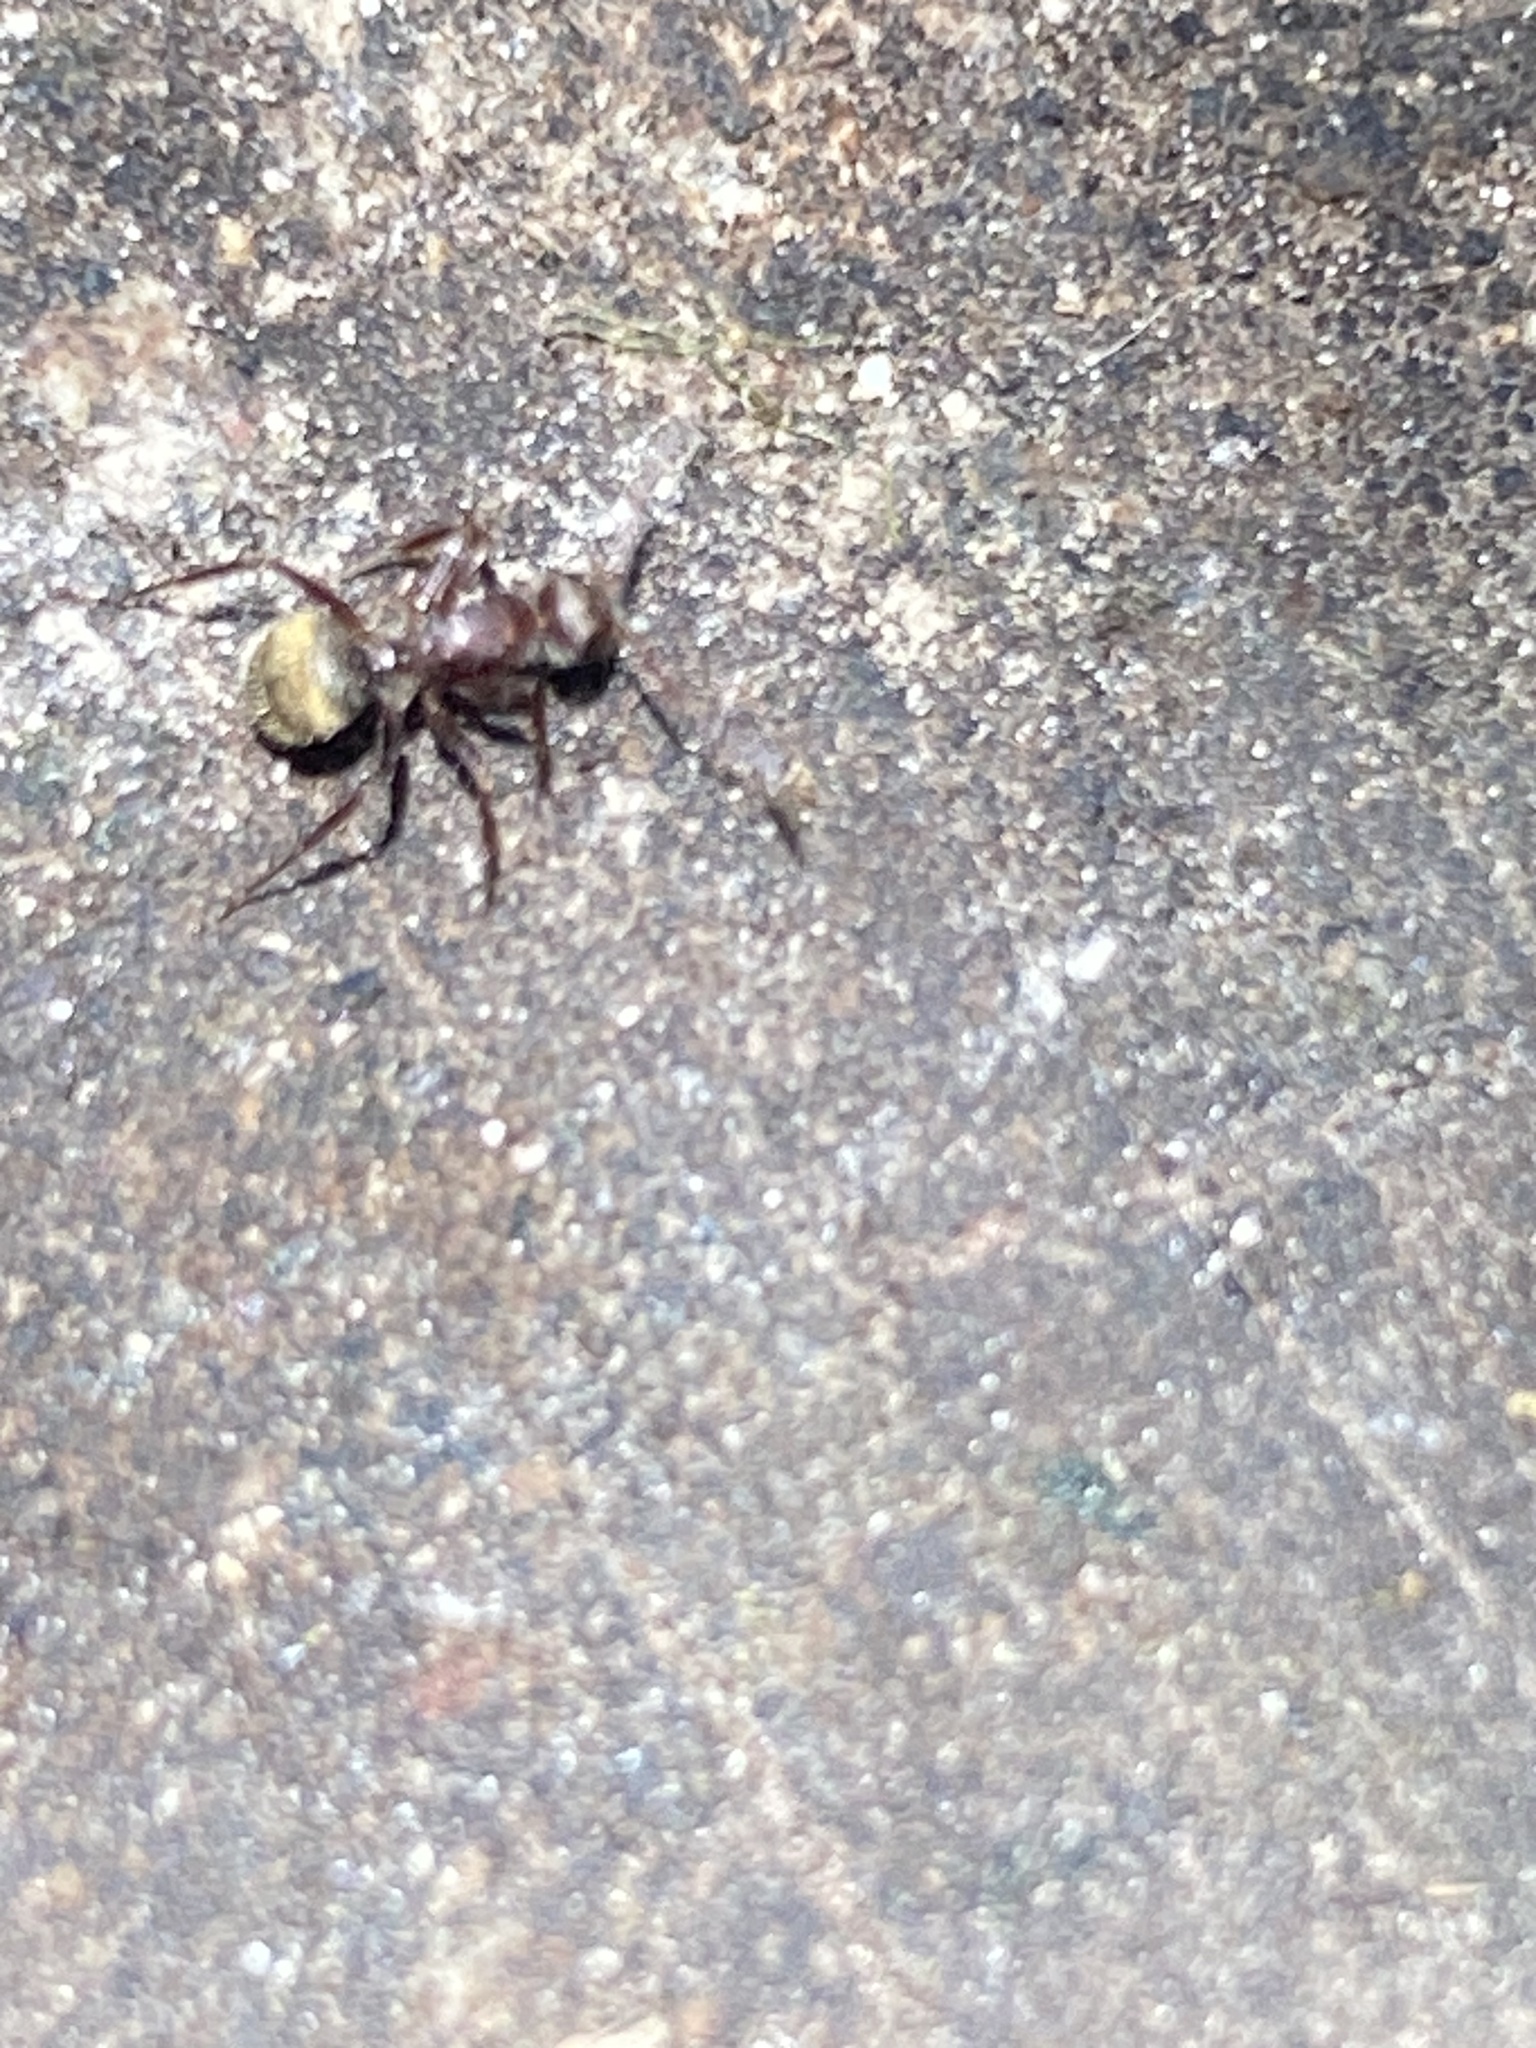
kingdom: Animalia
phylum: Arthropoda
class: Insecta
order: Hymenoptera
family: Formicidae
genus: Camponotus
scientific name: Camponotus planatus
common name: Compact carpenter ant
